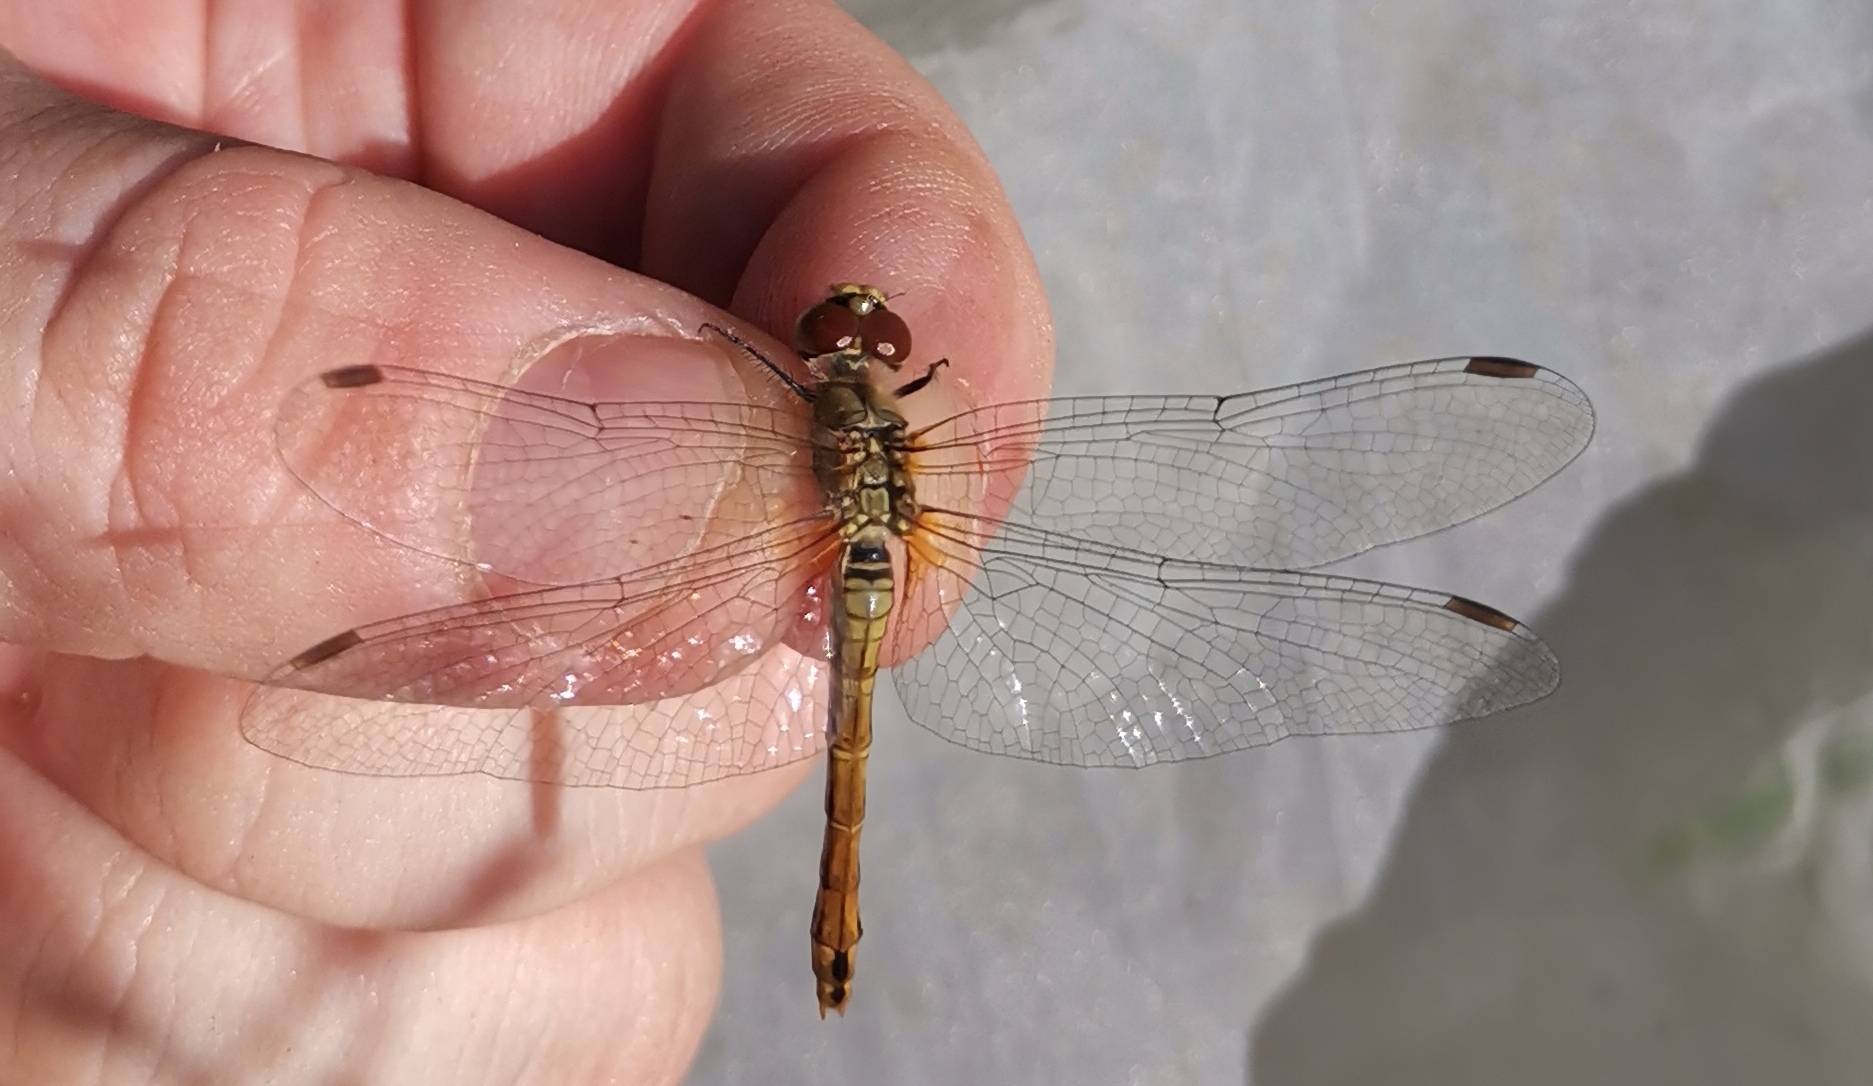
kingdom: Animalia
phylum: Arthropoda
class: Insecta
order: Odonata
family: Libellulidae
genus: Sympetrum
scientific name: Sympetrum sanguineum
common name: Ruddy darter
